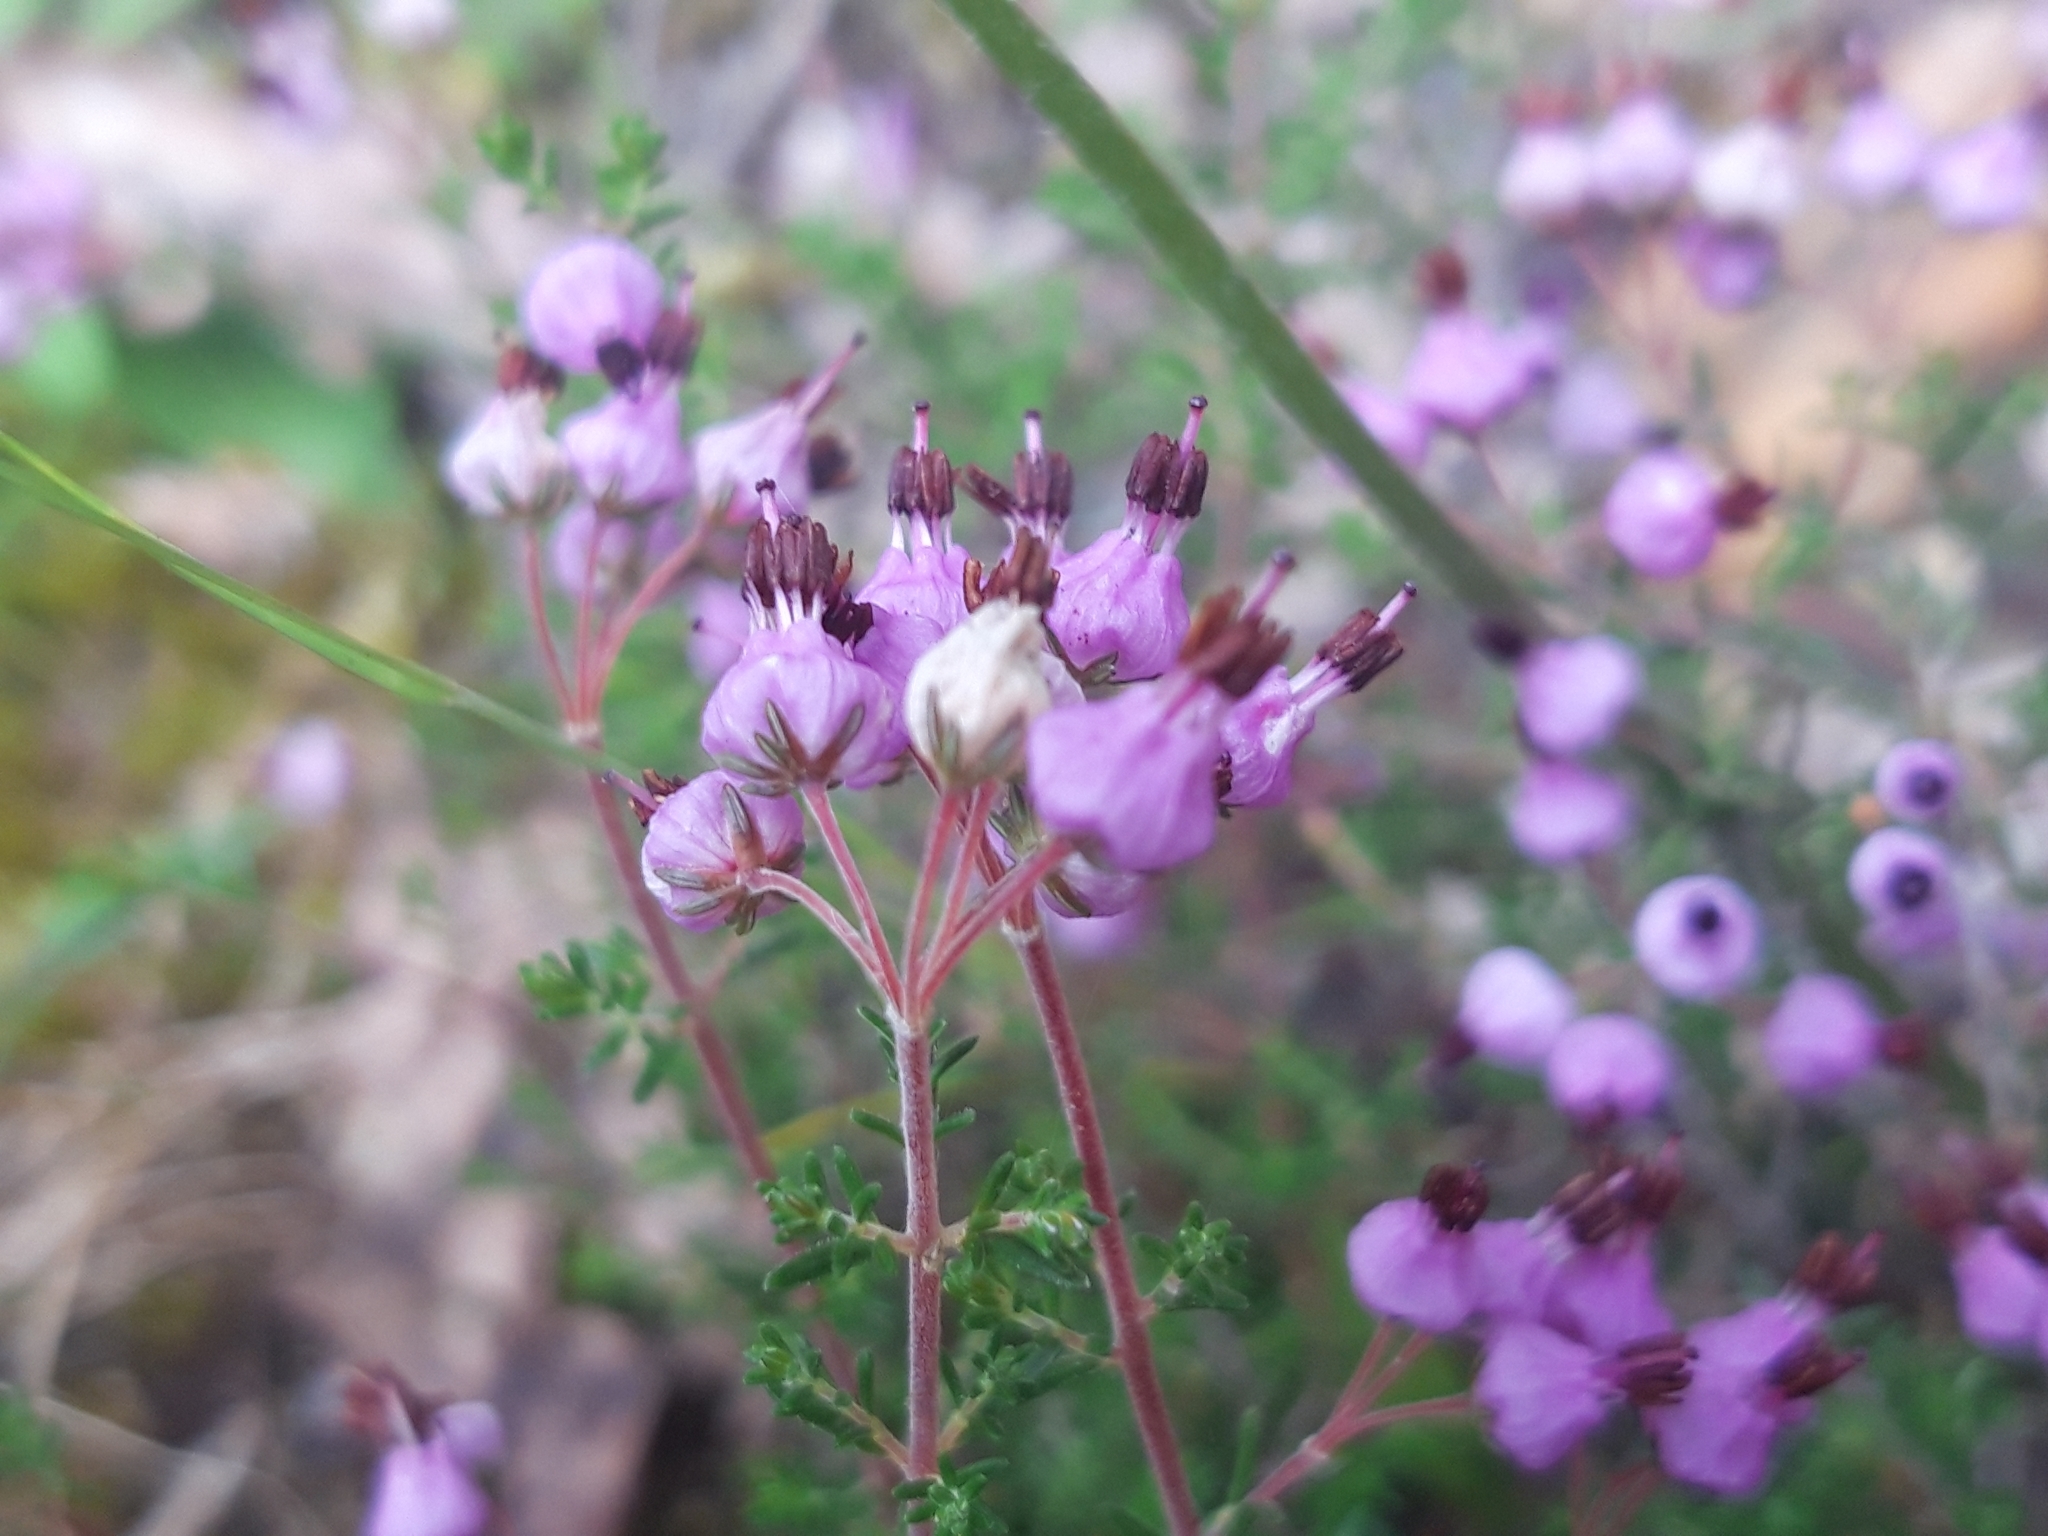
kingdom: Plantae
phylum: Tracheophyta
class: Magnoliopsida
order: Ericales
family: Ericaceae
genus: Erica
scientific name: Erica umbellata
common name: Dwarf spanish heath
